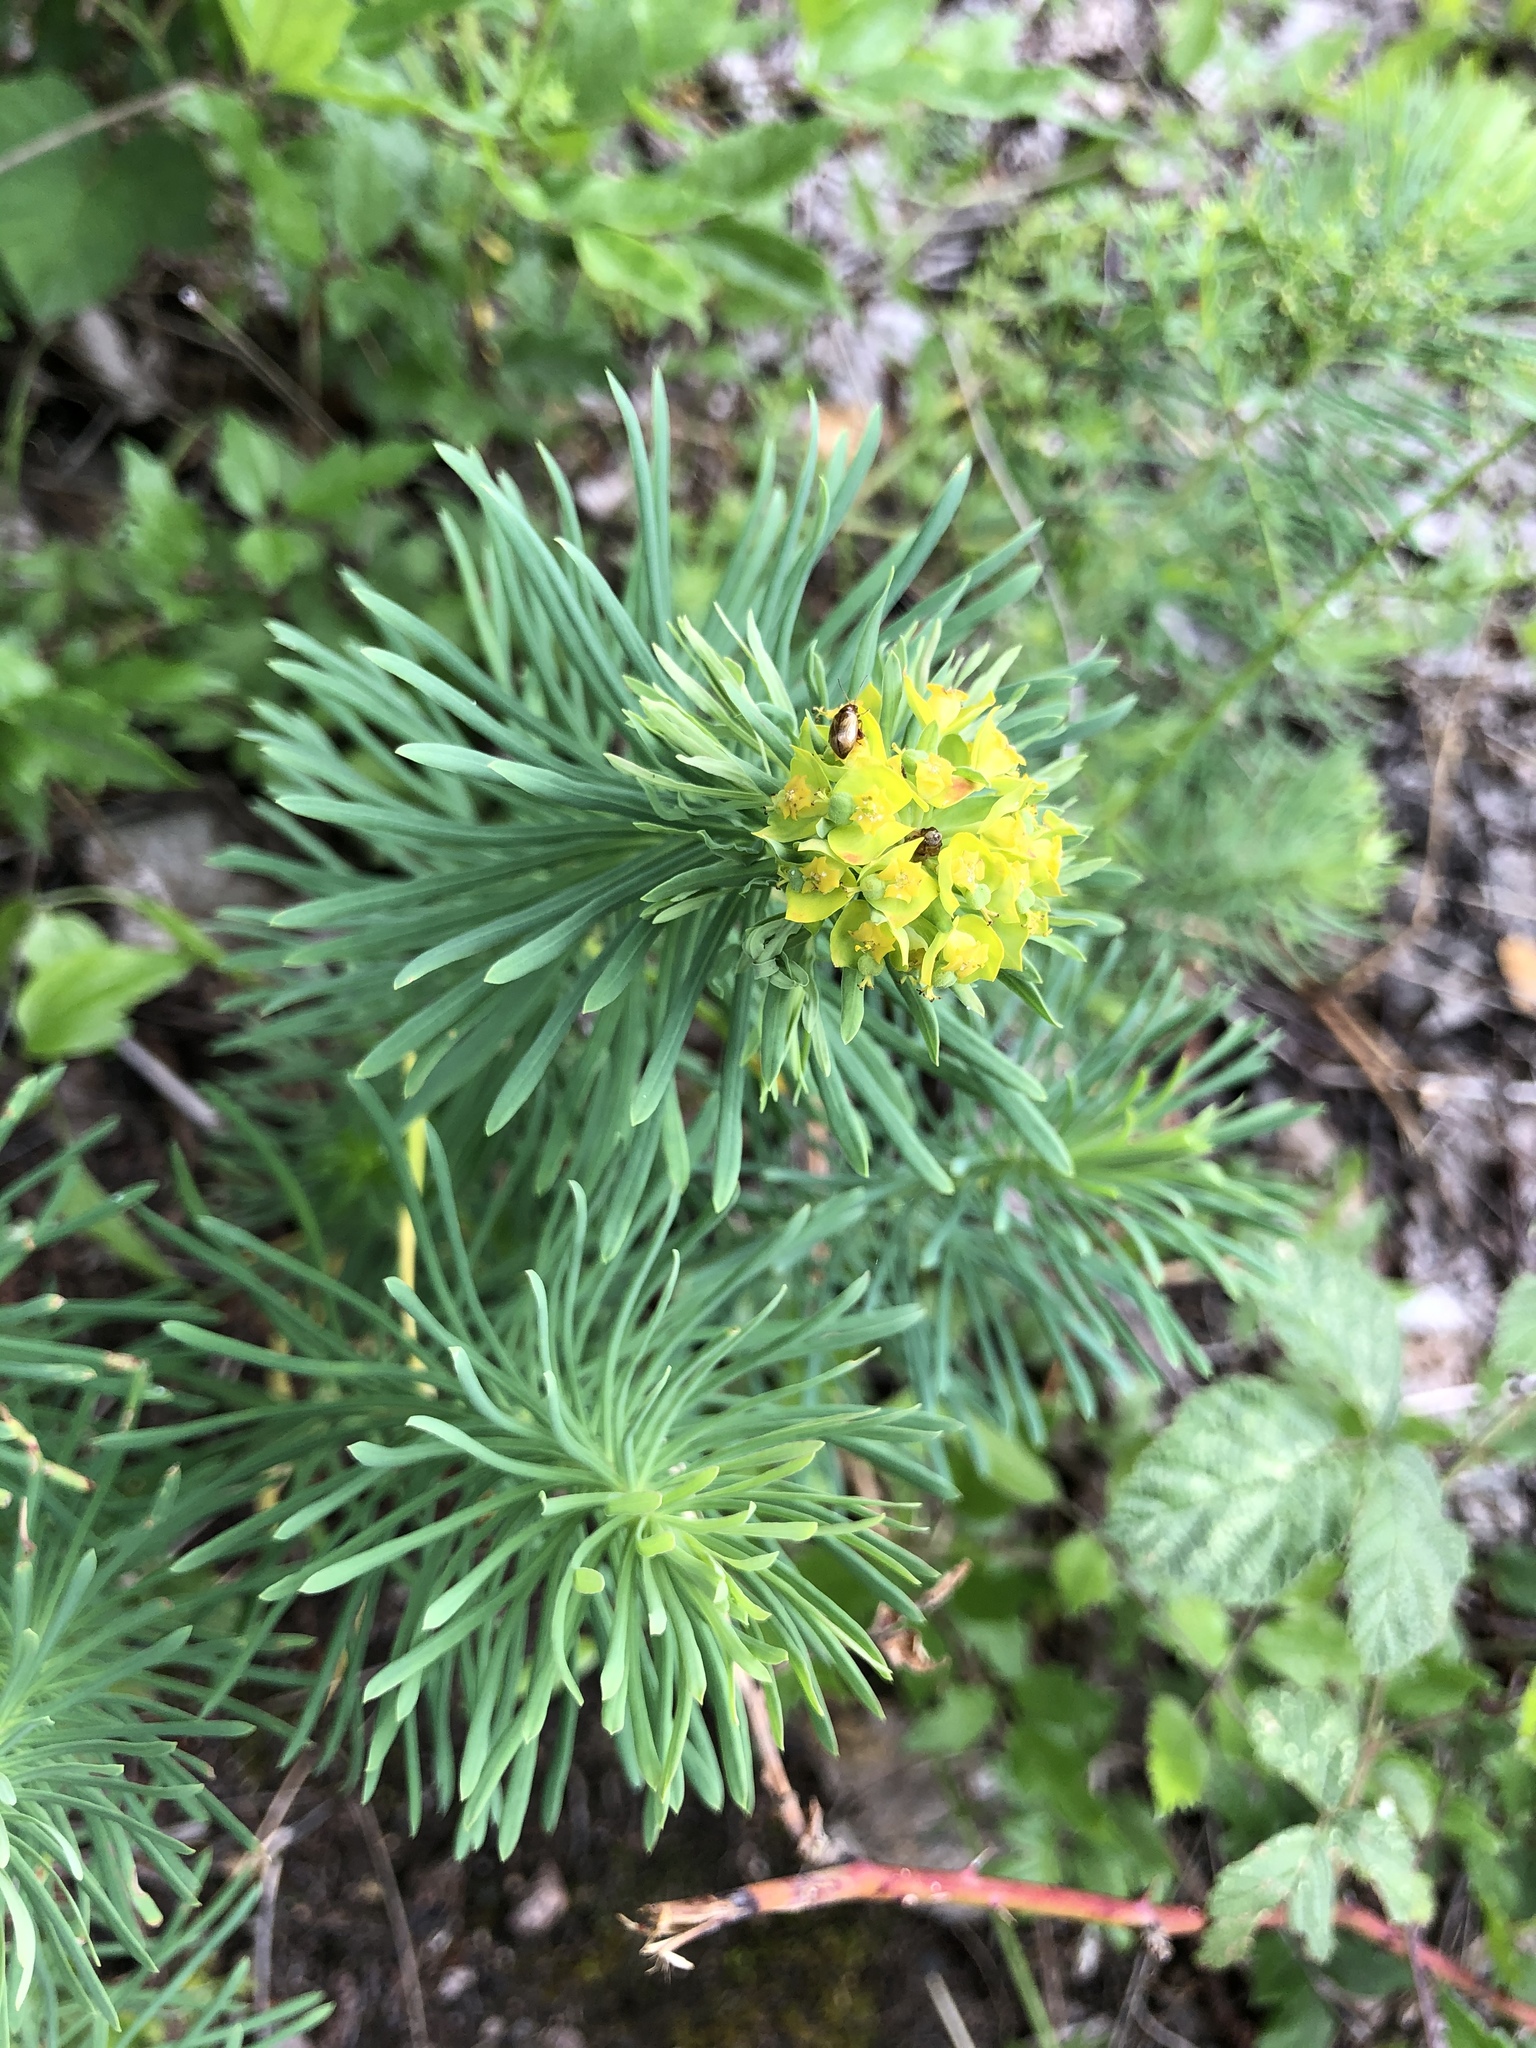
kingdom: Plantae
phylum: Tracheophyta
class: Magnoliopsida
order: Malpighiales
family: Euphorbiaceae
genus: Euphorbia
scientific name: Euphorbia cyparissias
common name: Cypress spurge
